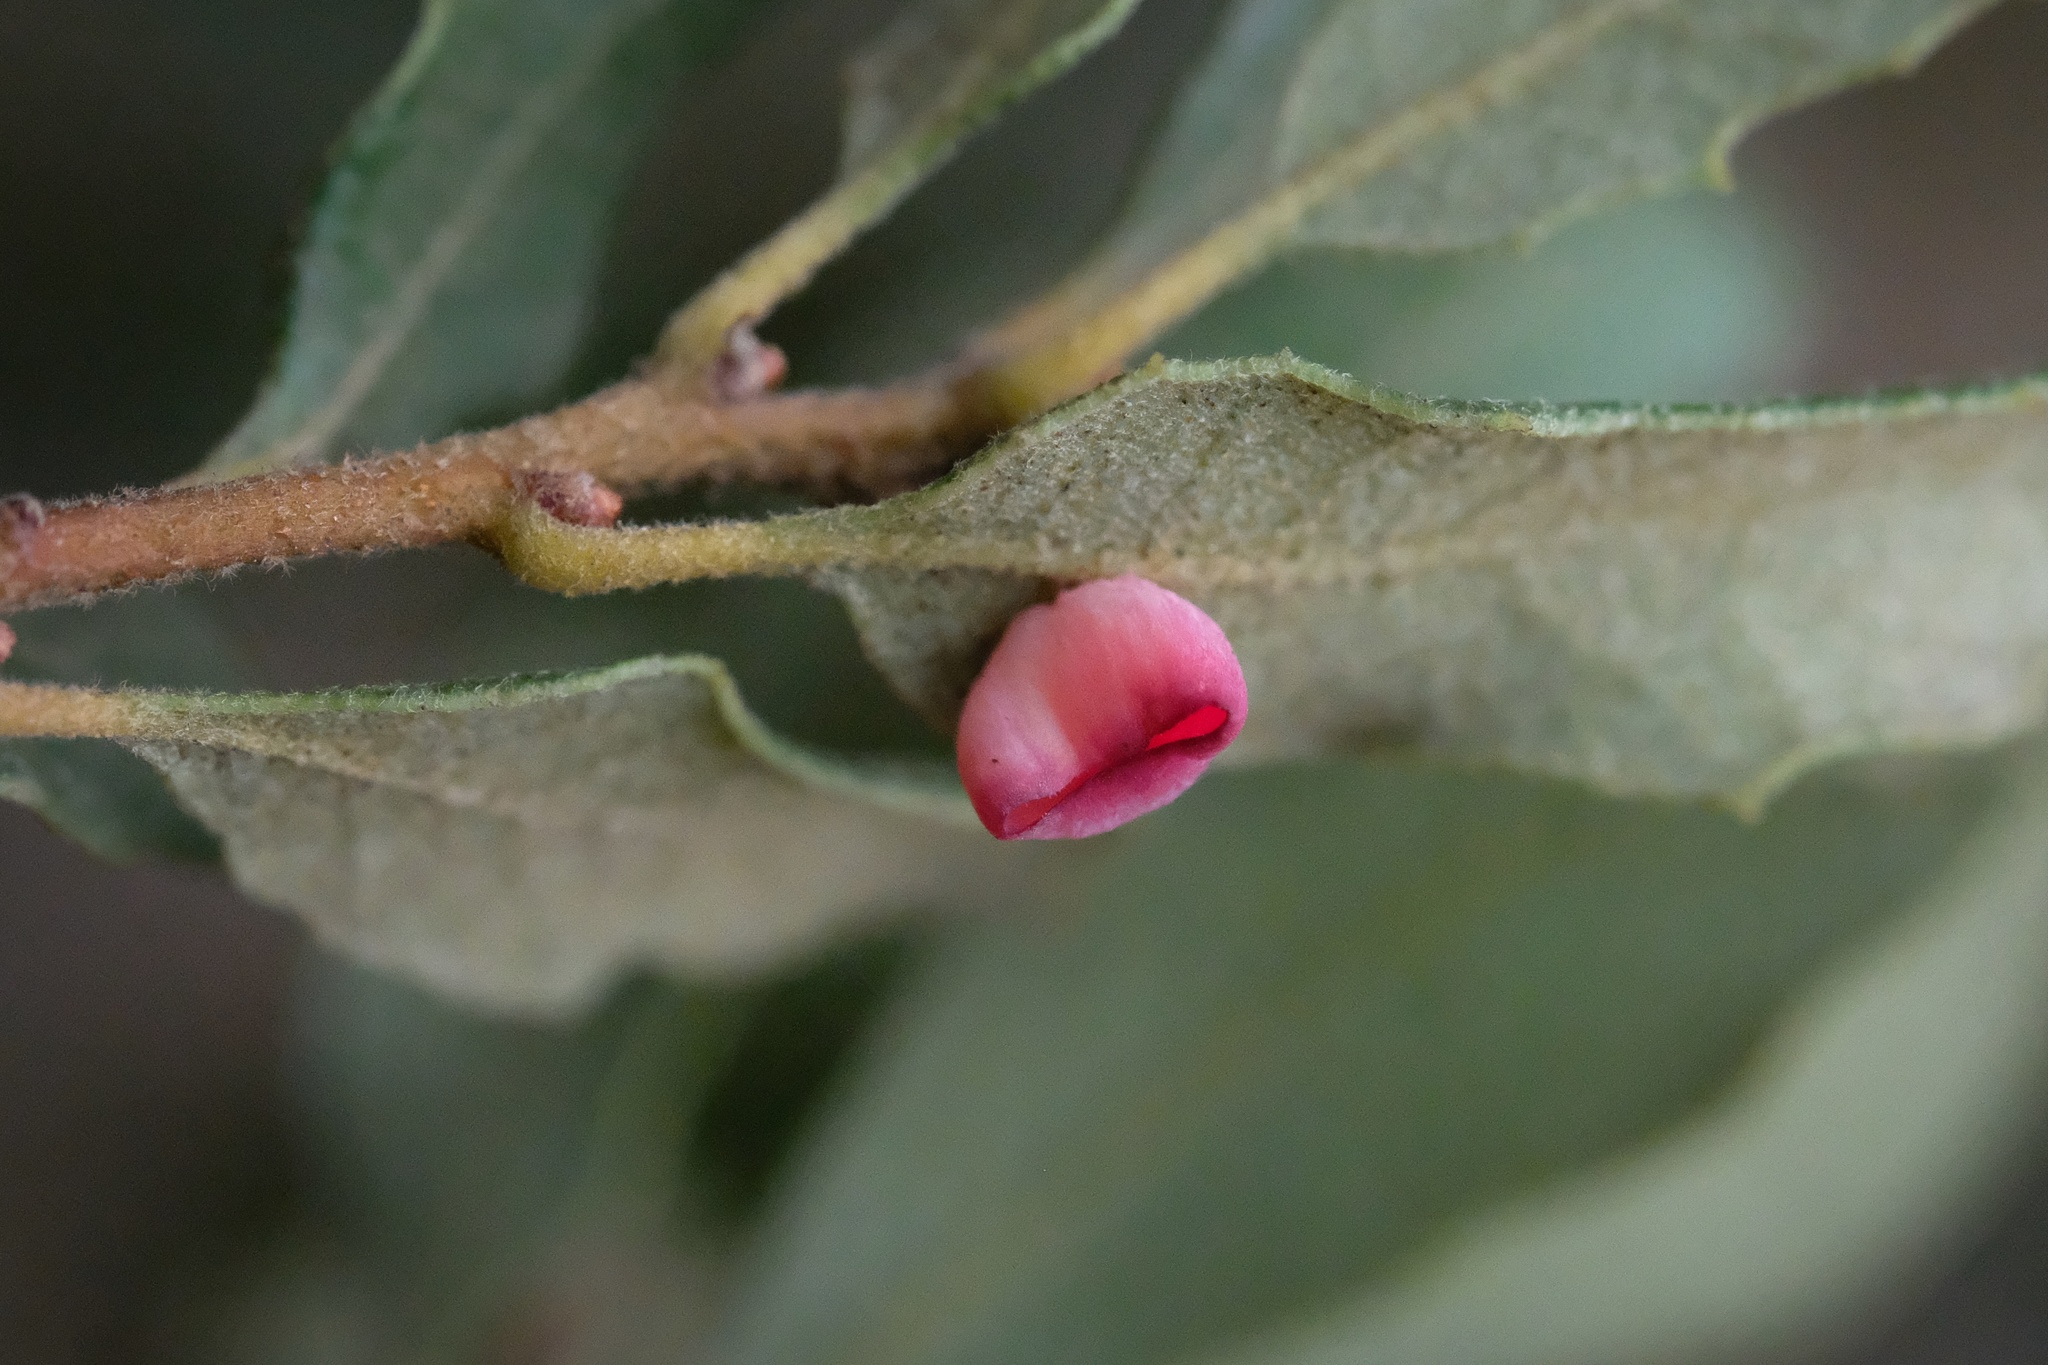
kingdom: Animalia
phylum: Arthropoda
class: Insecta
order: Hymenoptera
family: Cynipidae
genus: Andricus
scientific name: Andricus
